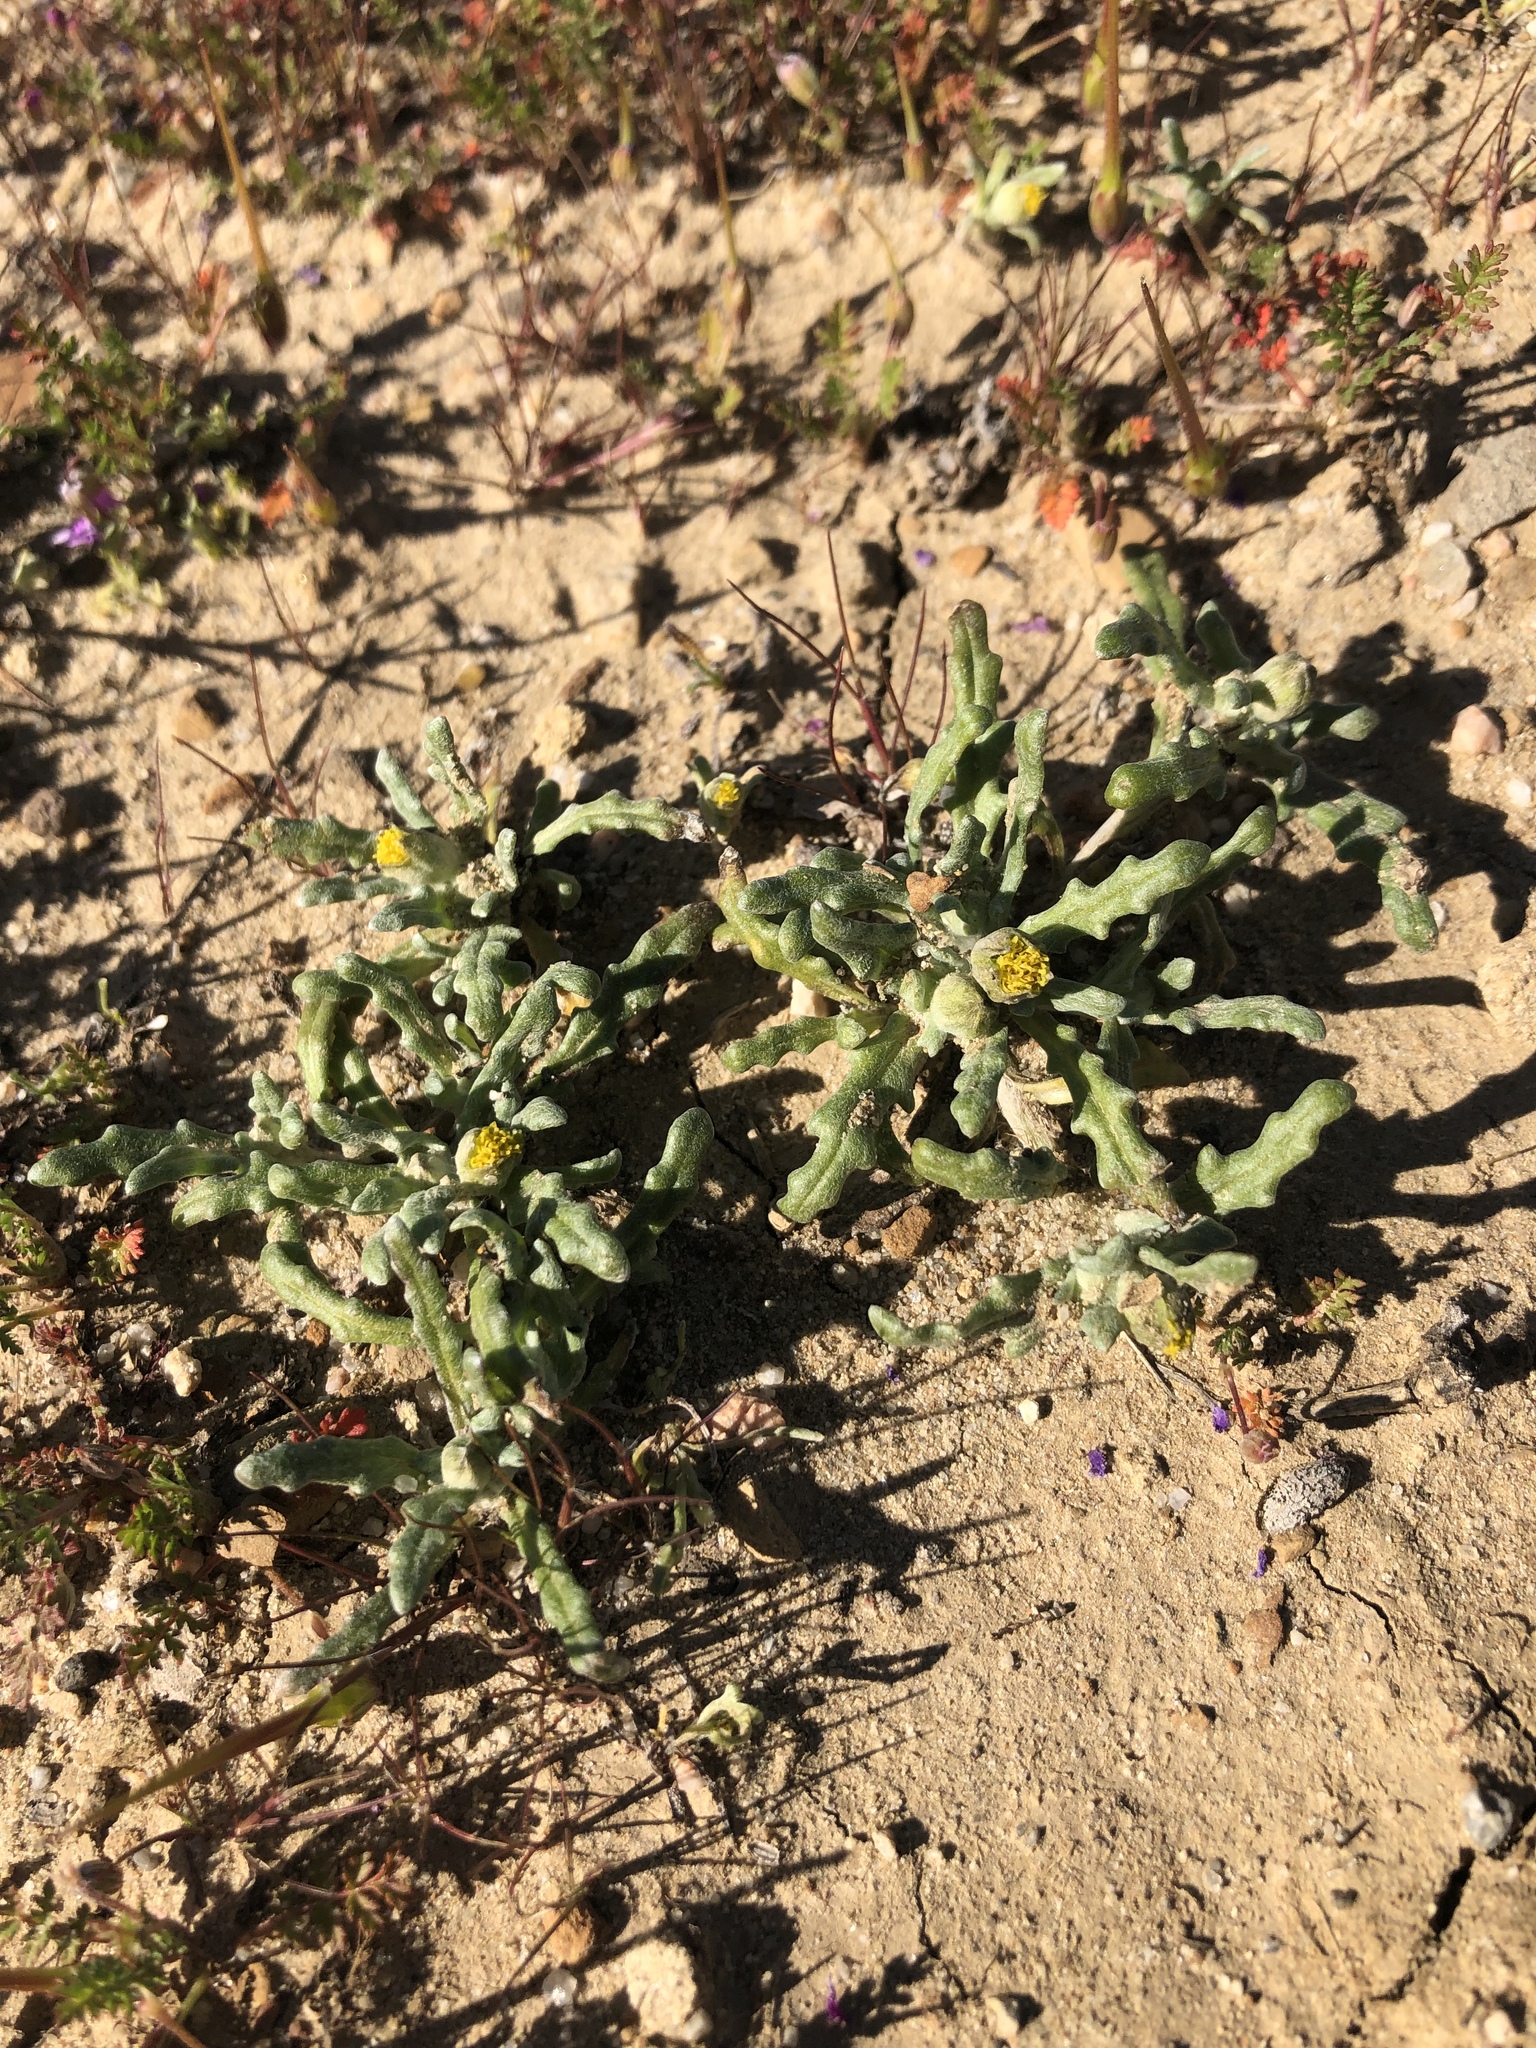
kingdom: Plantae
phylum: Tracheophyta
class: Magnoliopsida
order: Asterales
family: Asteraceae
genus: Monolopia
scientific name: Monolopia congdonii
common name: San joaquin woolly-threads
